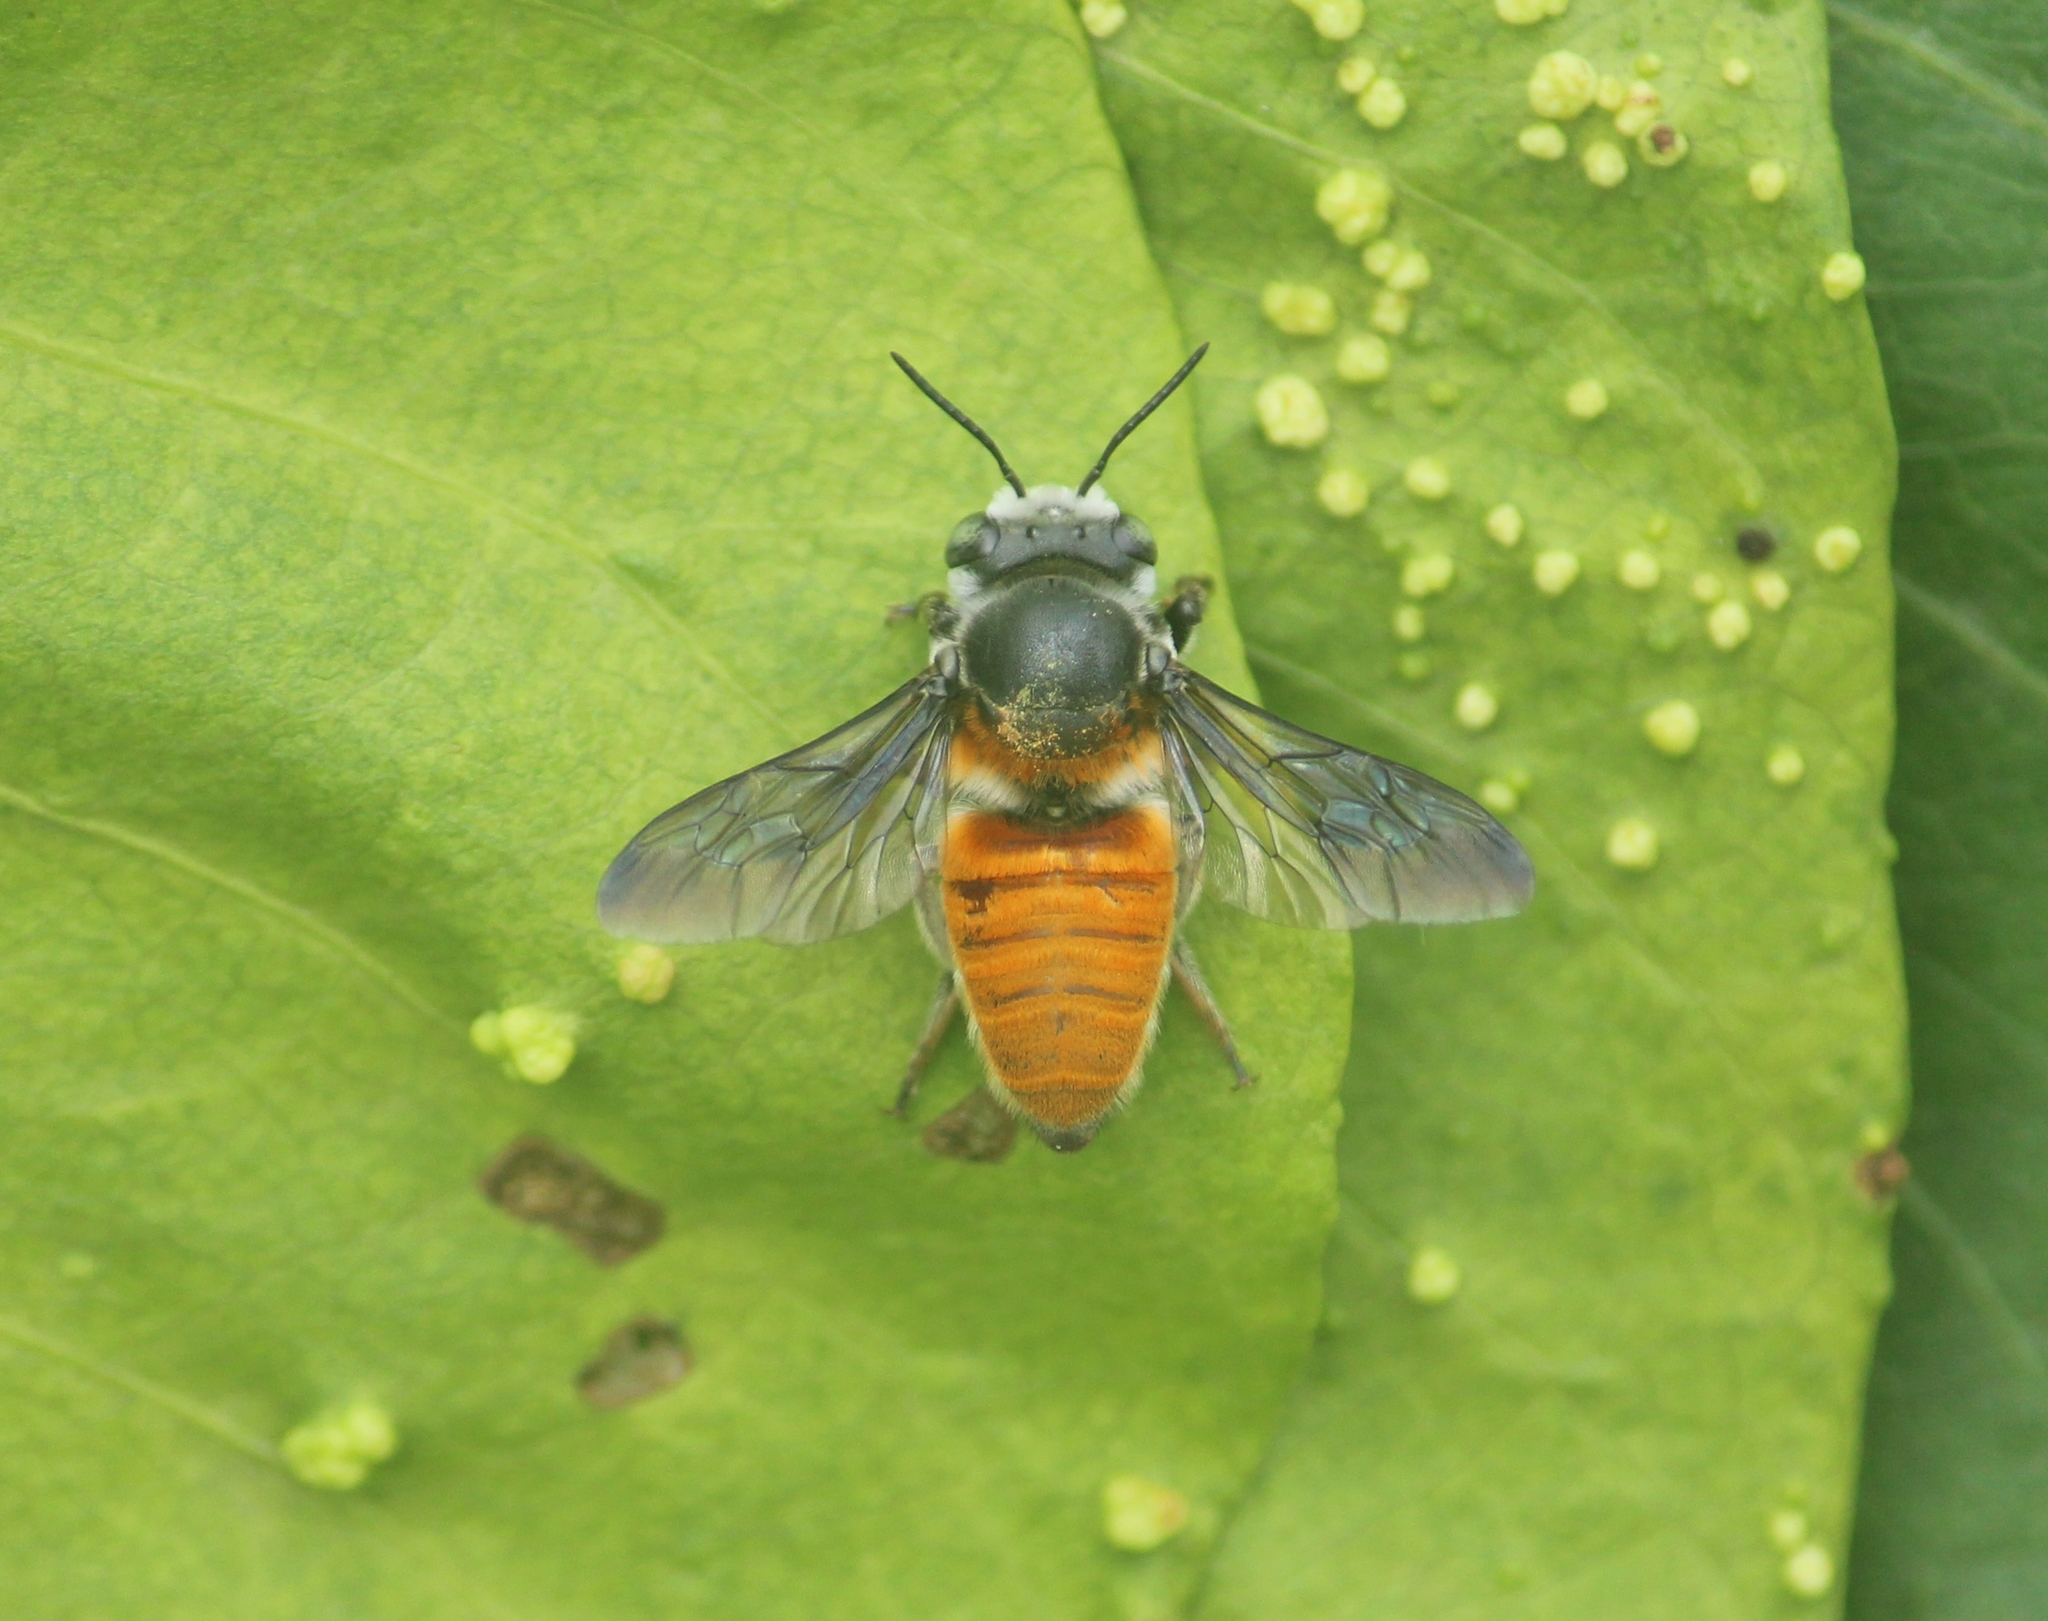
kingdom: Animalia
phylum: Arthropoda
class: Insecta
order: Hymenoptera
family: Megachilidae
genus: Megachile
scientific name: Megachile bicolor
